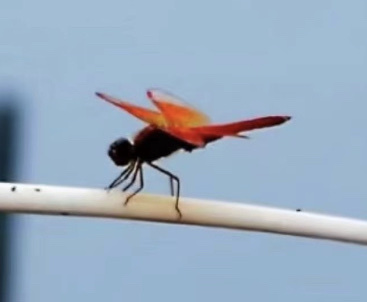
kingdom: Animalia
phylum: Arthropoda
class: Insecta
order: Odonata
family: Libellulidae
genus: Brachythemis
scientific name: Brachythemis contaminata
